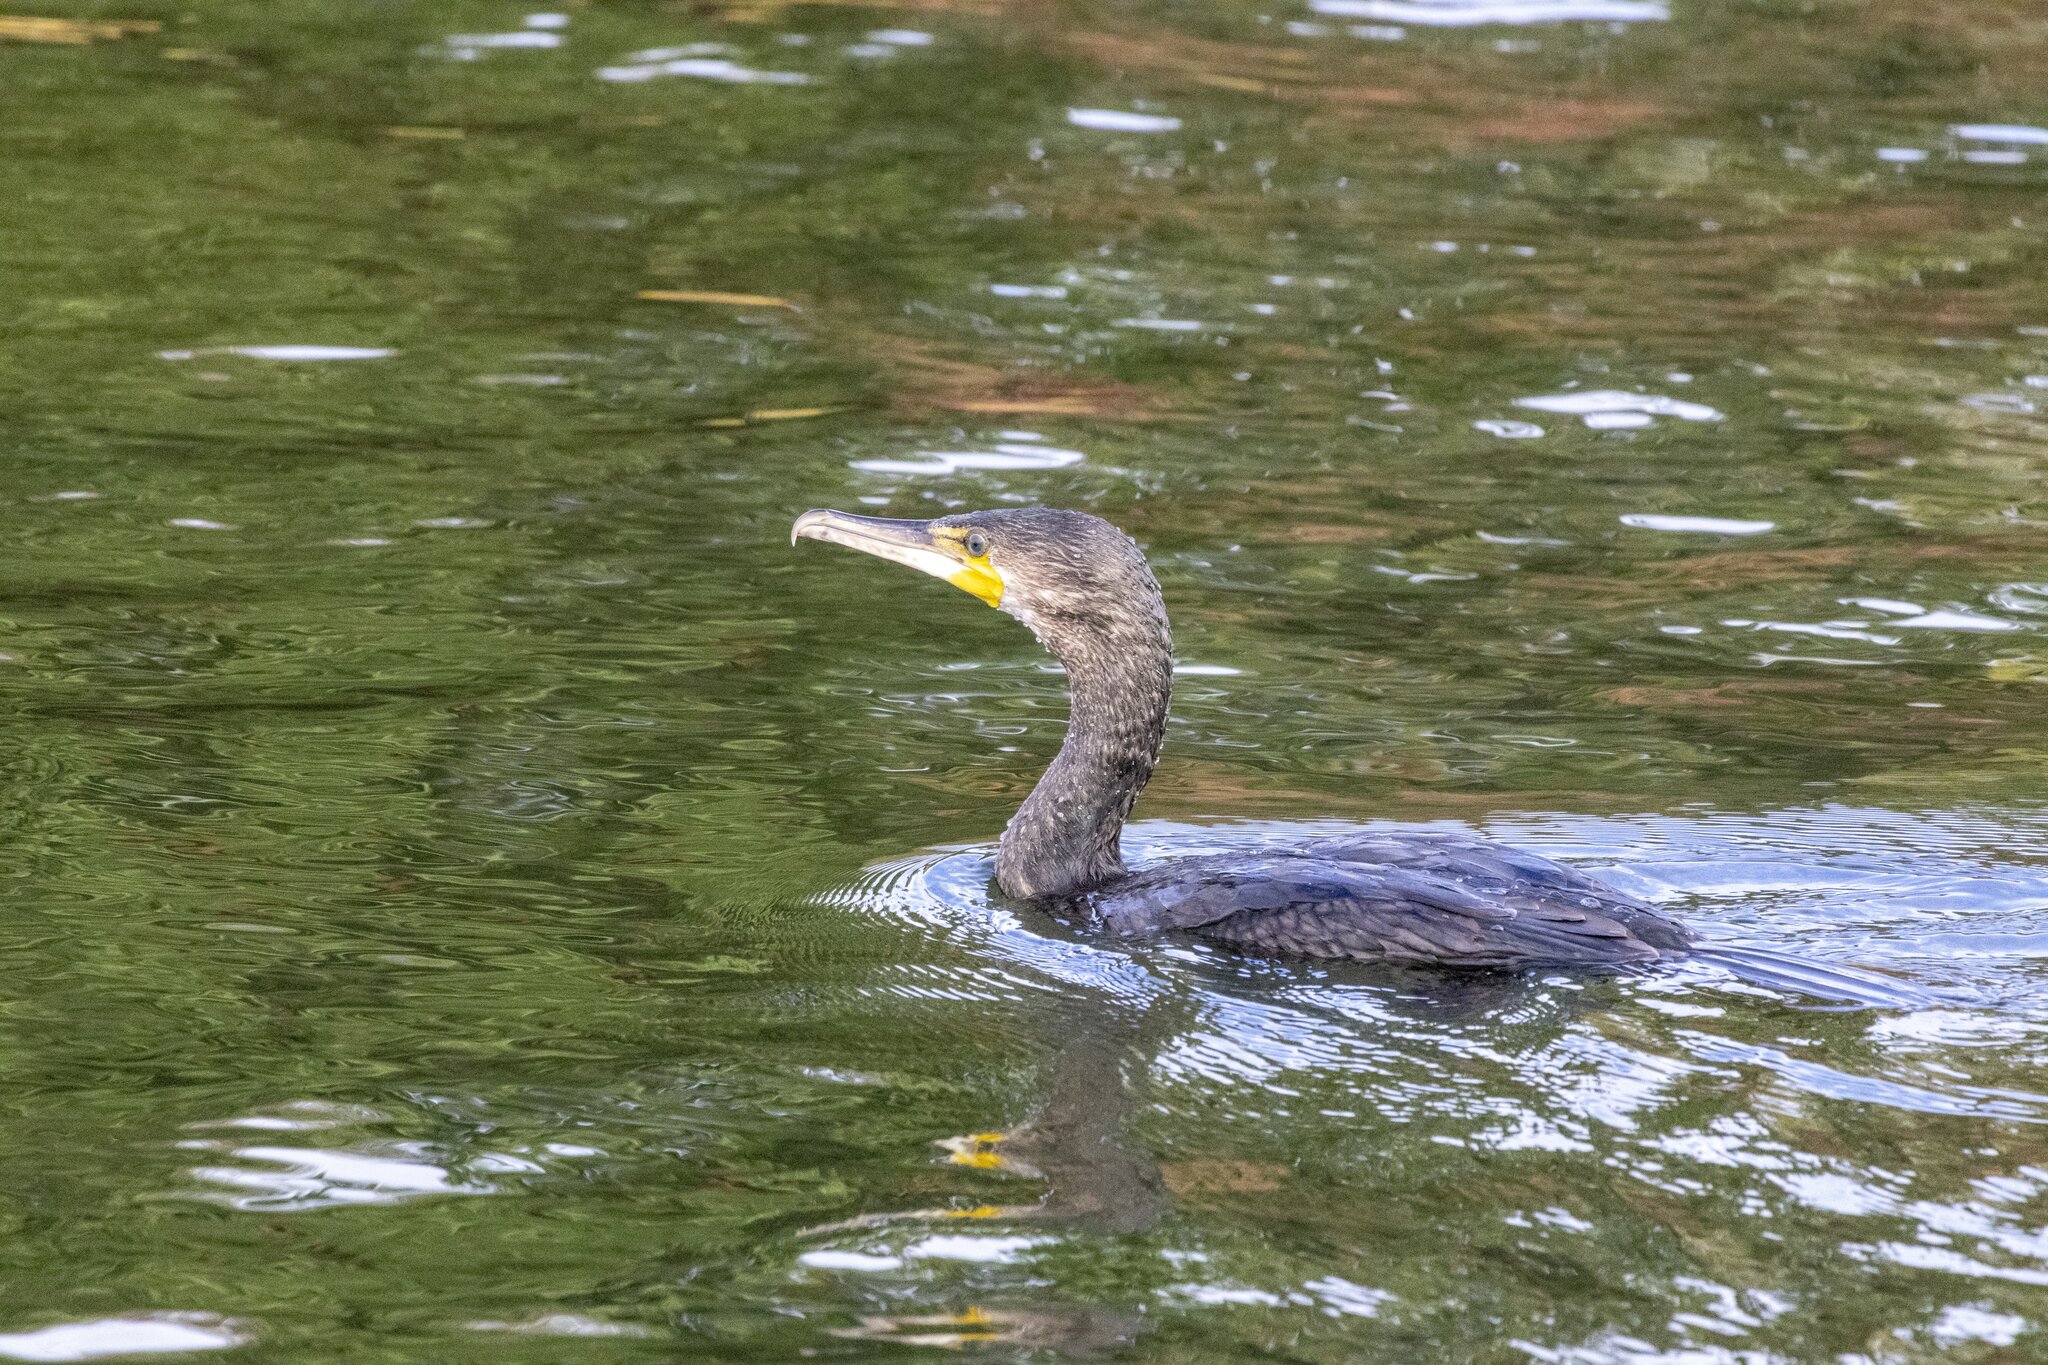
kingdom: Animalia
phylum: Chordata
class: Aves
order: Suliformes
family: Phalacrocoracidae
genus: Phalacrocorax
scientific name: Phalacrocorax carbo
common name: Great cormorant
